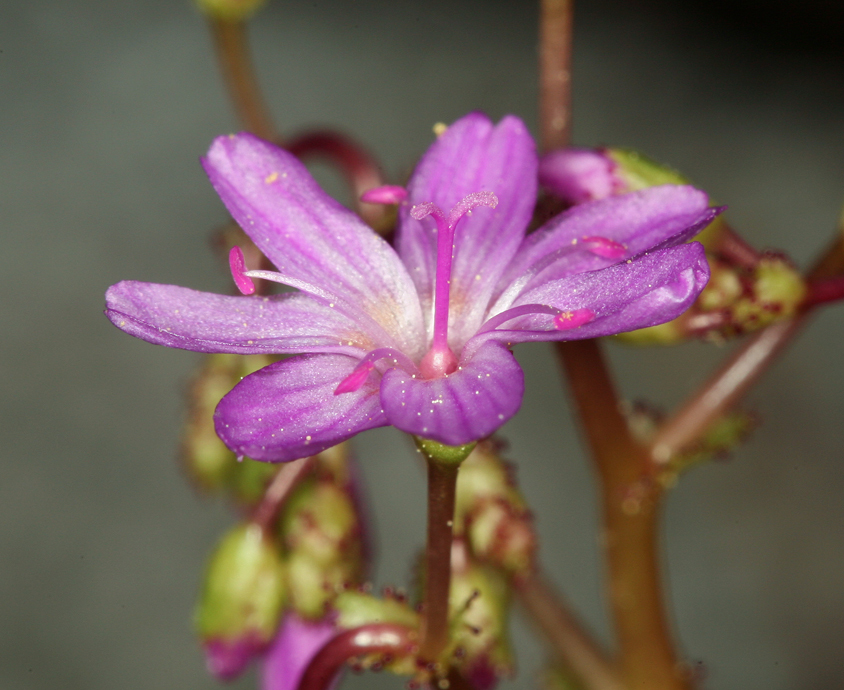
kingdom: Plantae
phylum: Tracheophyta
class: Magnoliopsida
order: Caryophyllales
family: Montiaceae
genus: Lewisia
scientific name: Lewisia leeana
